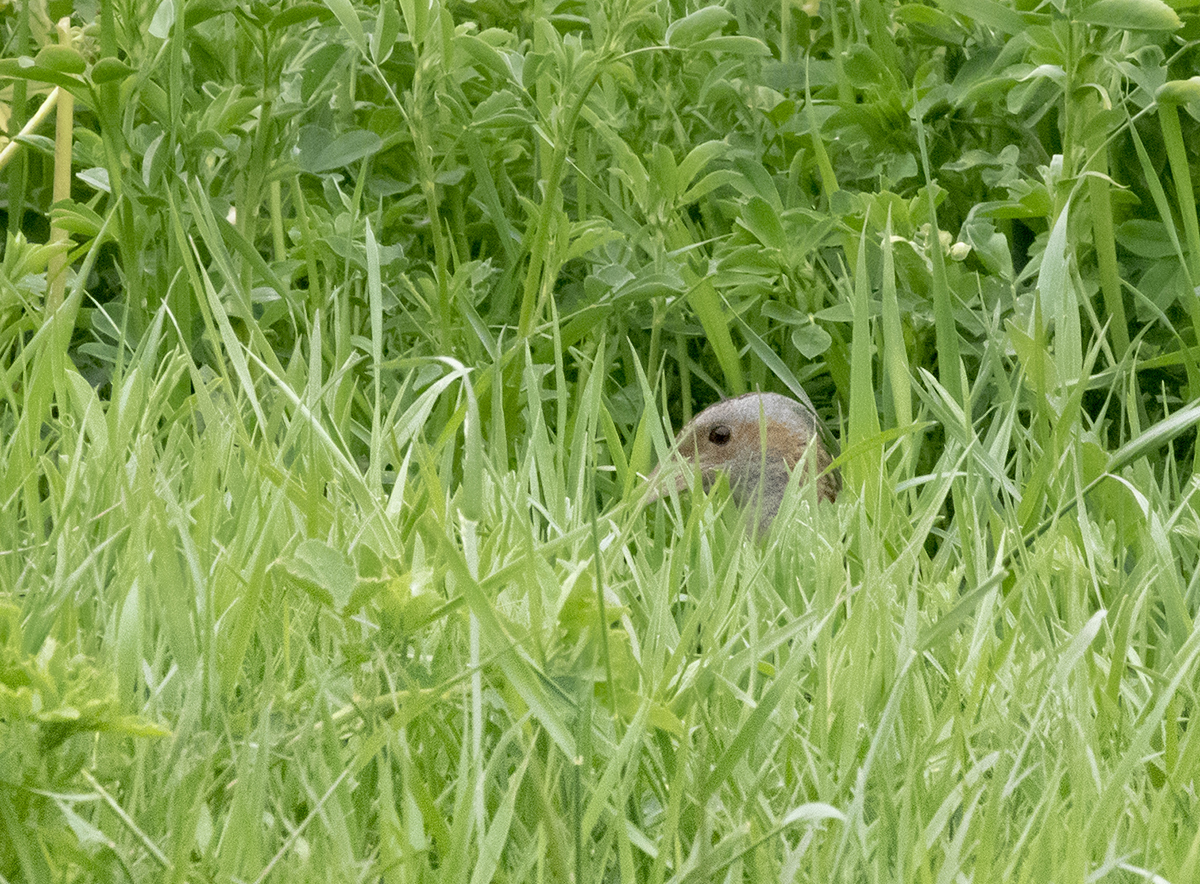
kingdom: Animalia
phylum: Chordata
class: Aves
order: Gruiformes
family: Rallidae
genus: Crex
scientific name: Crex crex
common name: Corn crake
